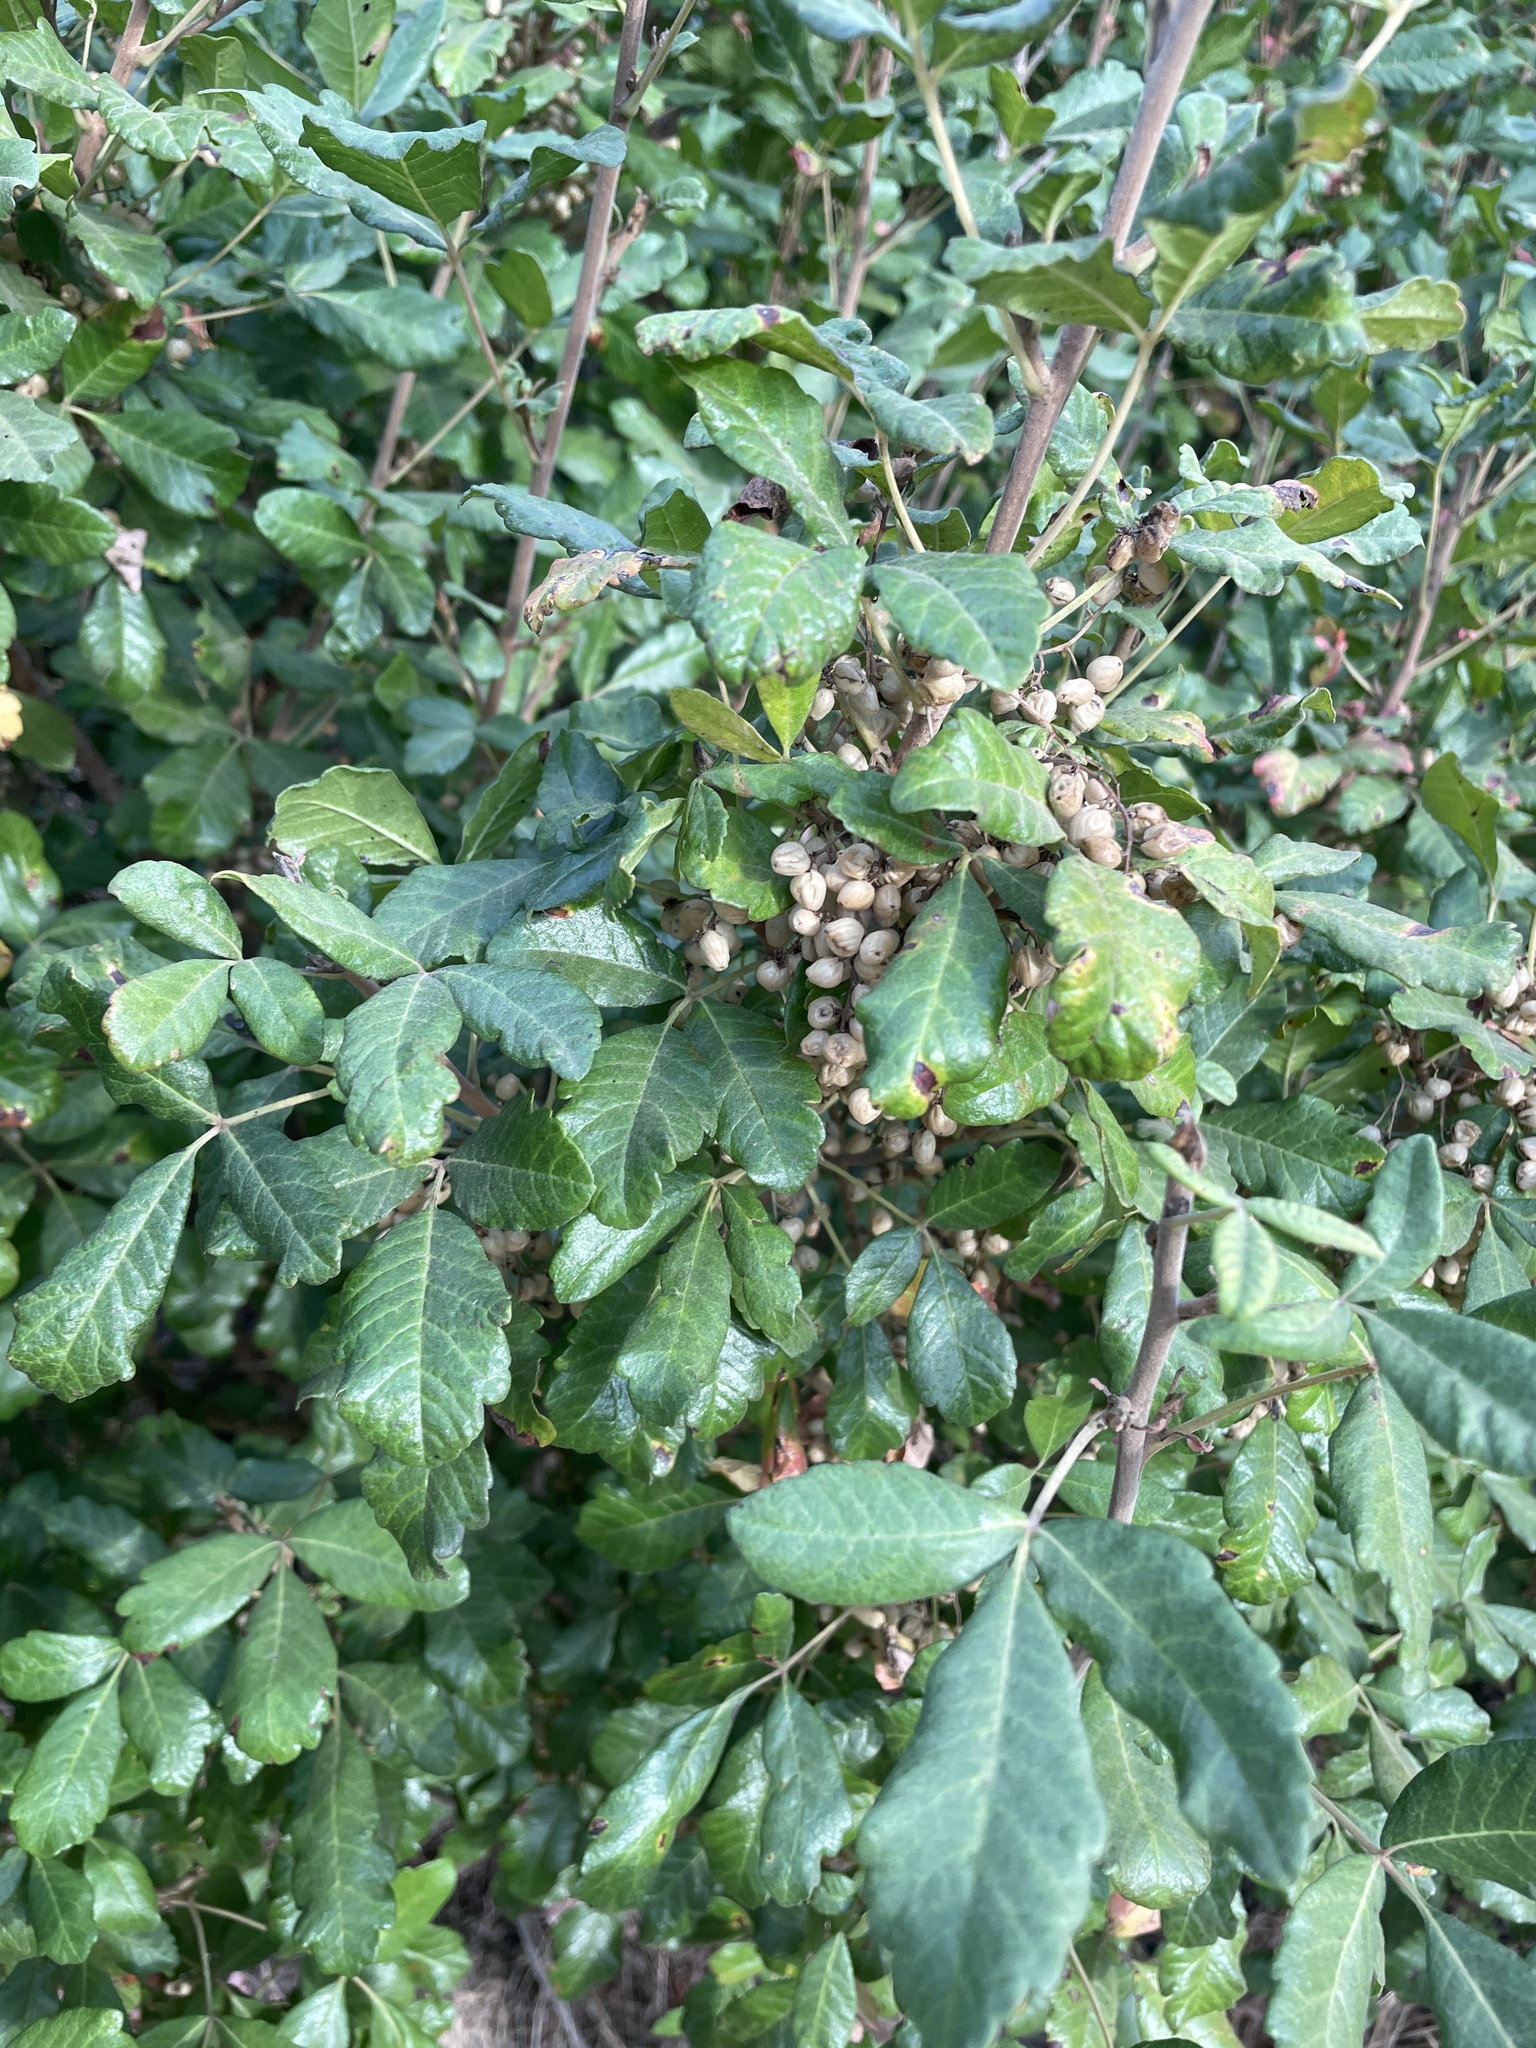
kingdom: Plantae
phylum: Tracheophyta
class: Magnoliopsida
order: Sapindales
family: Anacardiaceae
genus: Toxicodendron
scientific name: Toxicodendron diversilobum
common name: Pacific poison-oak
